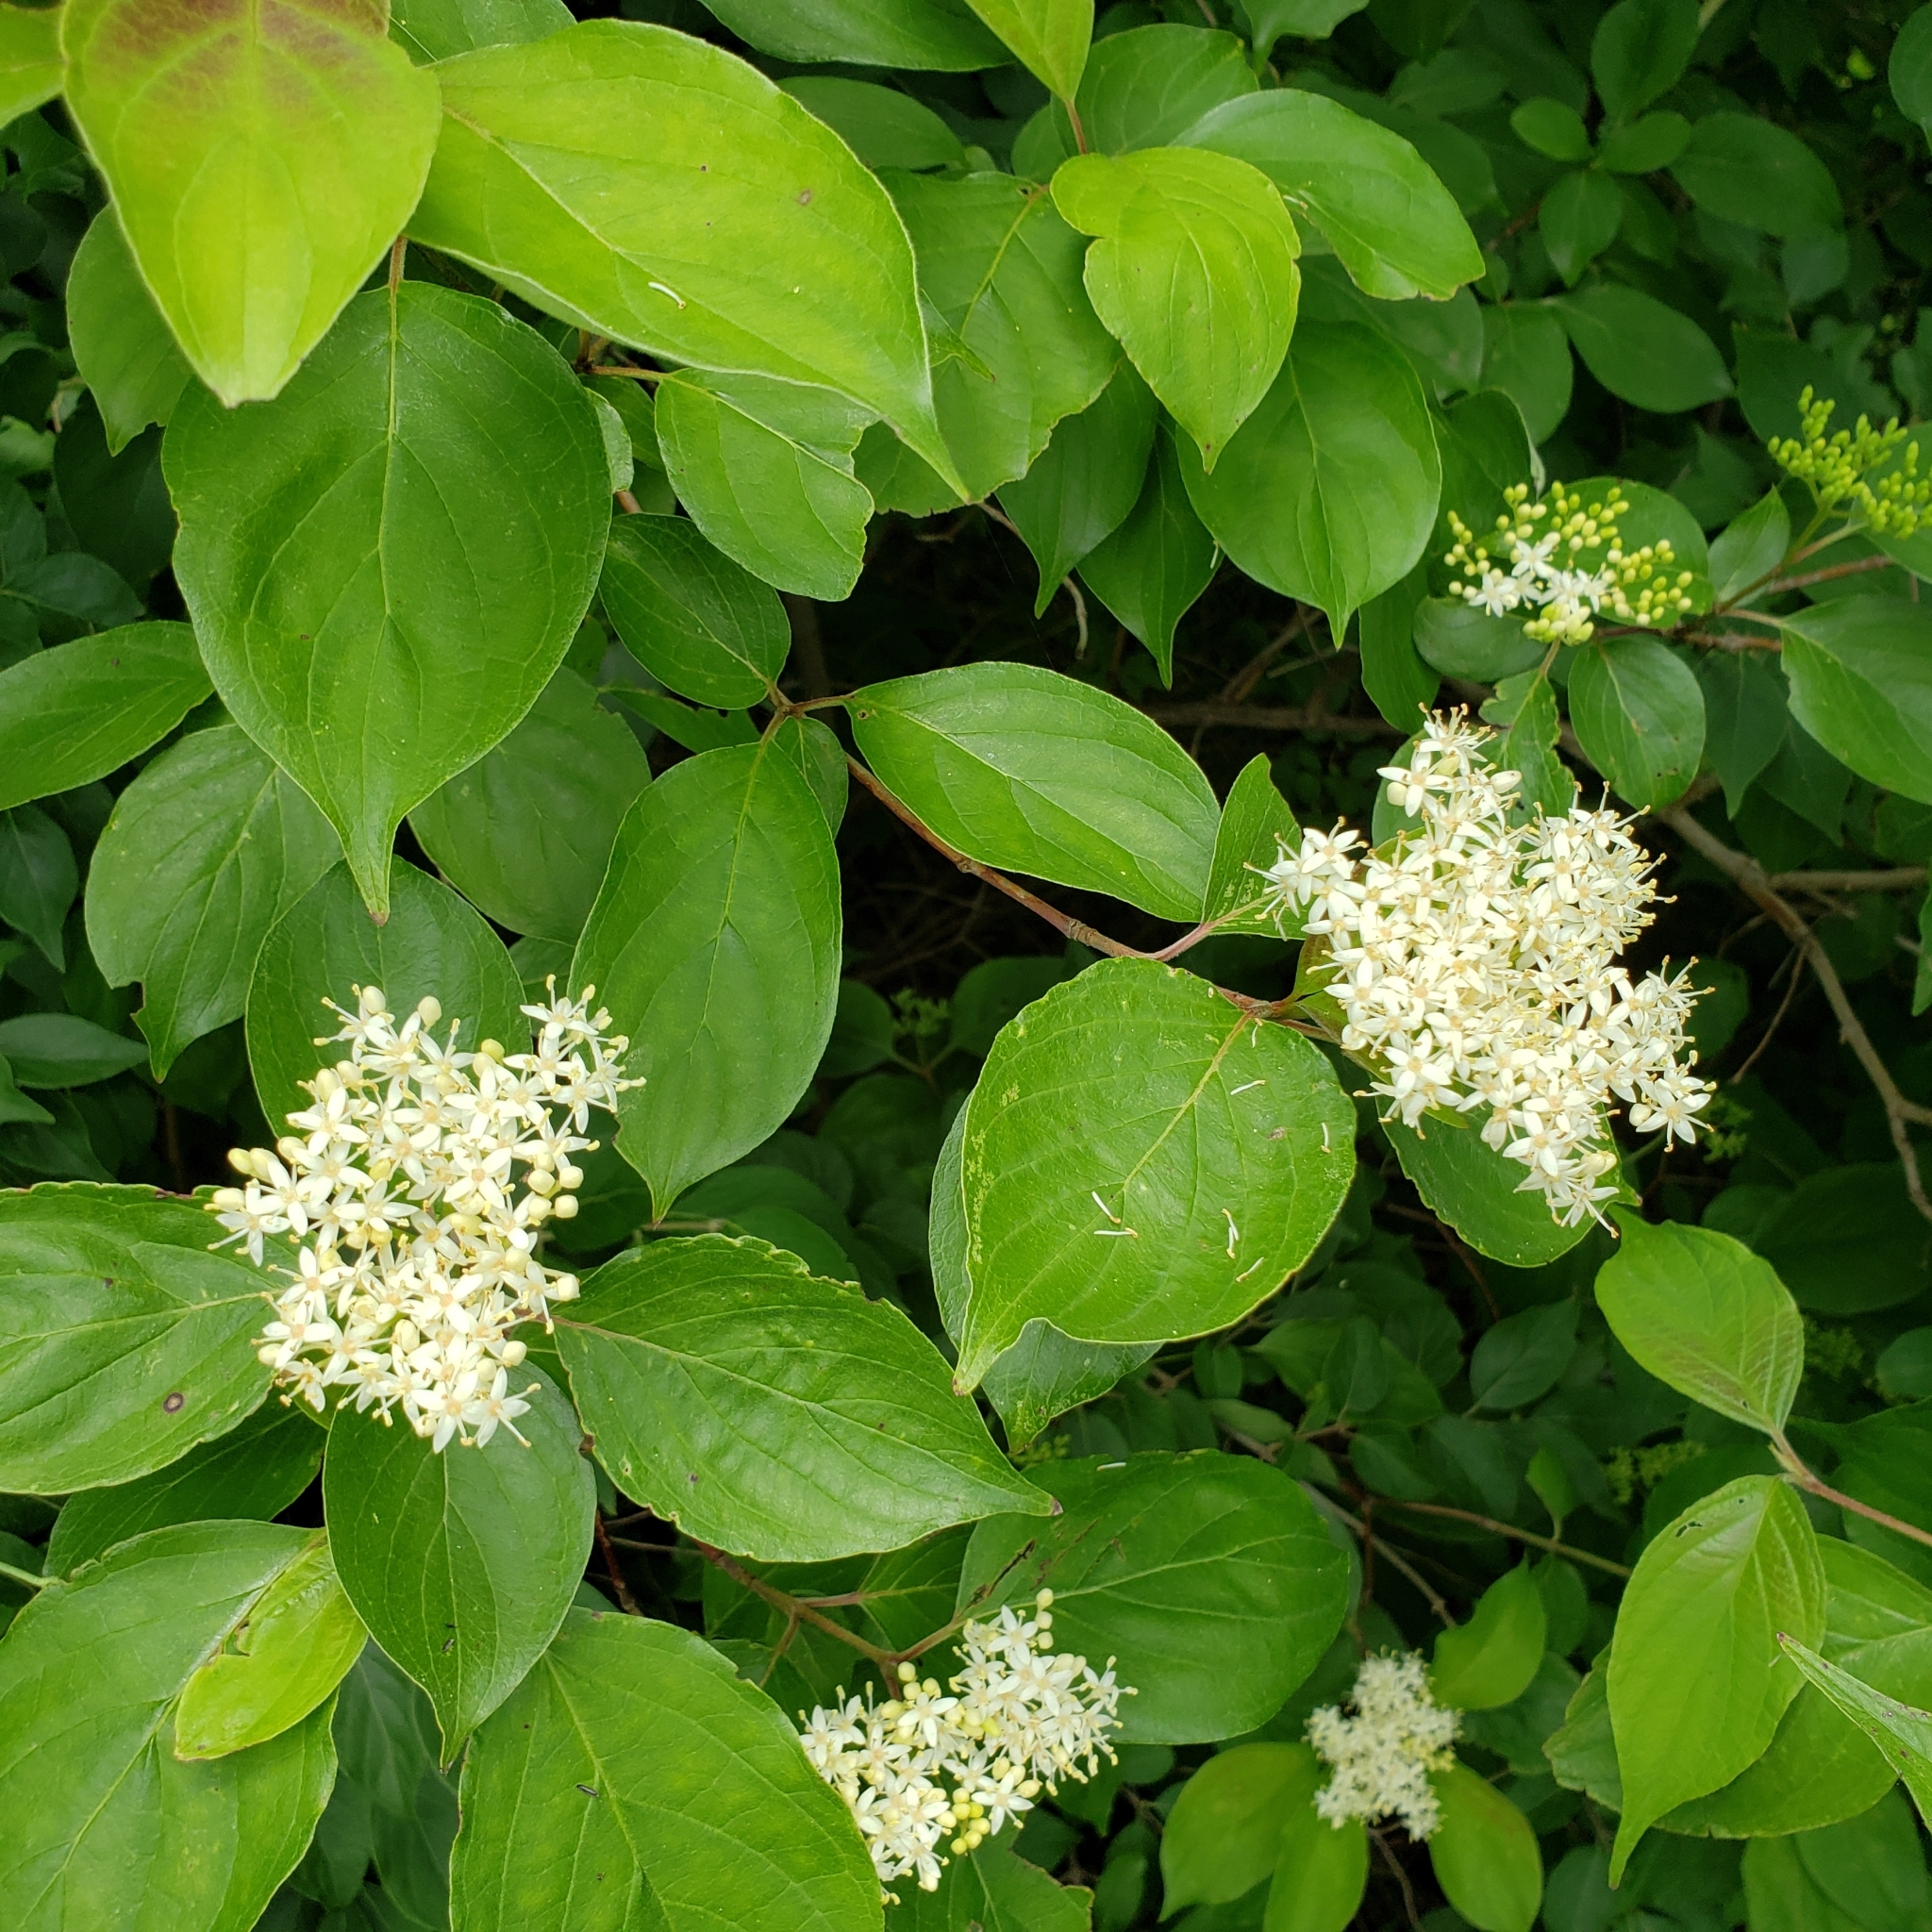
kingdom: Plantae
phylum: Tracheophyta
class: Magnoliopsida
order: Cornales
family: Cornaceae
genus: Cornus
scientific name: Cornus drummondii
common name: Rough-leaf dogwood
